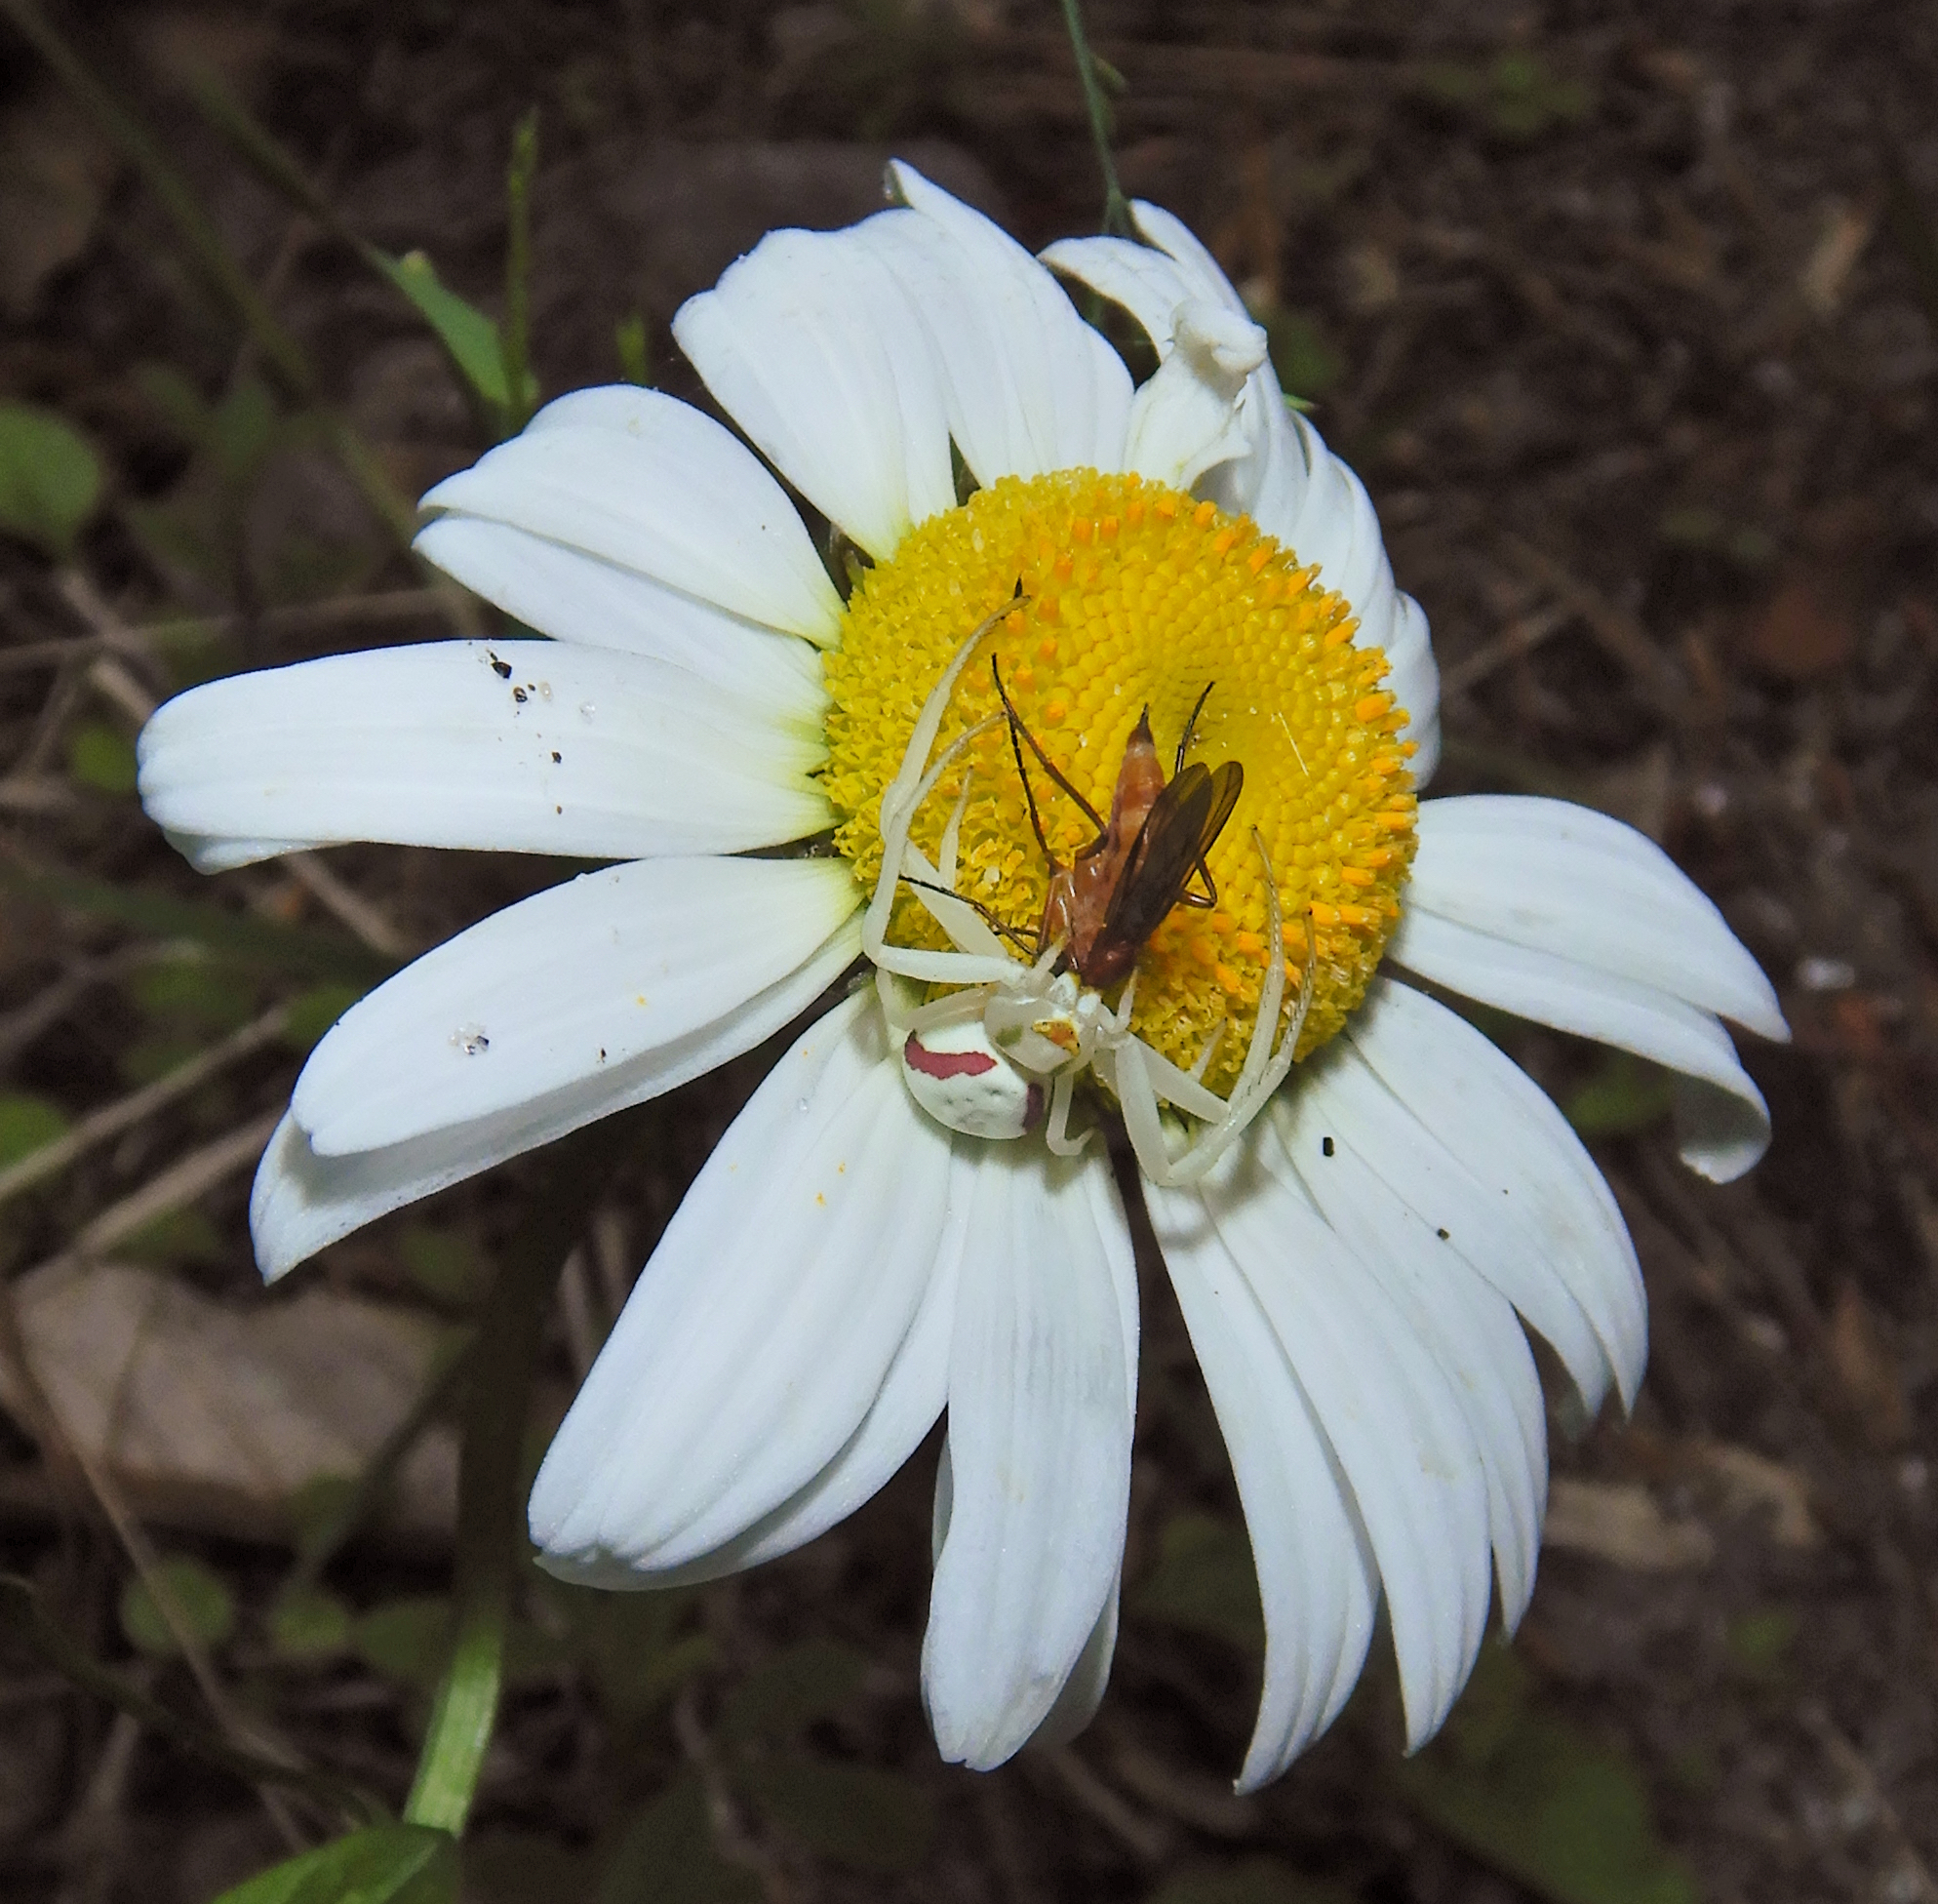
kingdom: Animalia
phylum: Arthropoda
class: Arachnida
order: Araneae
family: Thomisidae
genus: Misumena
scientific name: Misumena vatia
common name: Goldenrod crab spider
